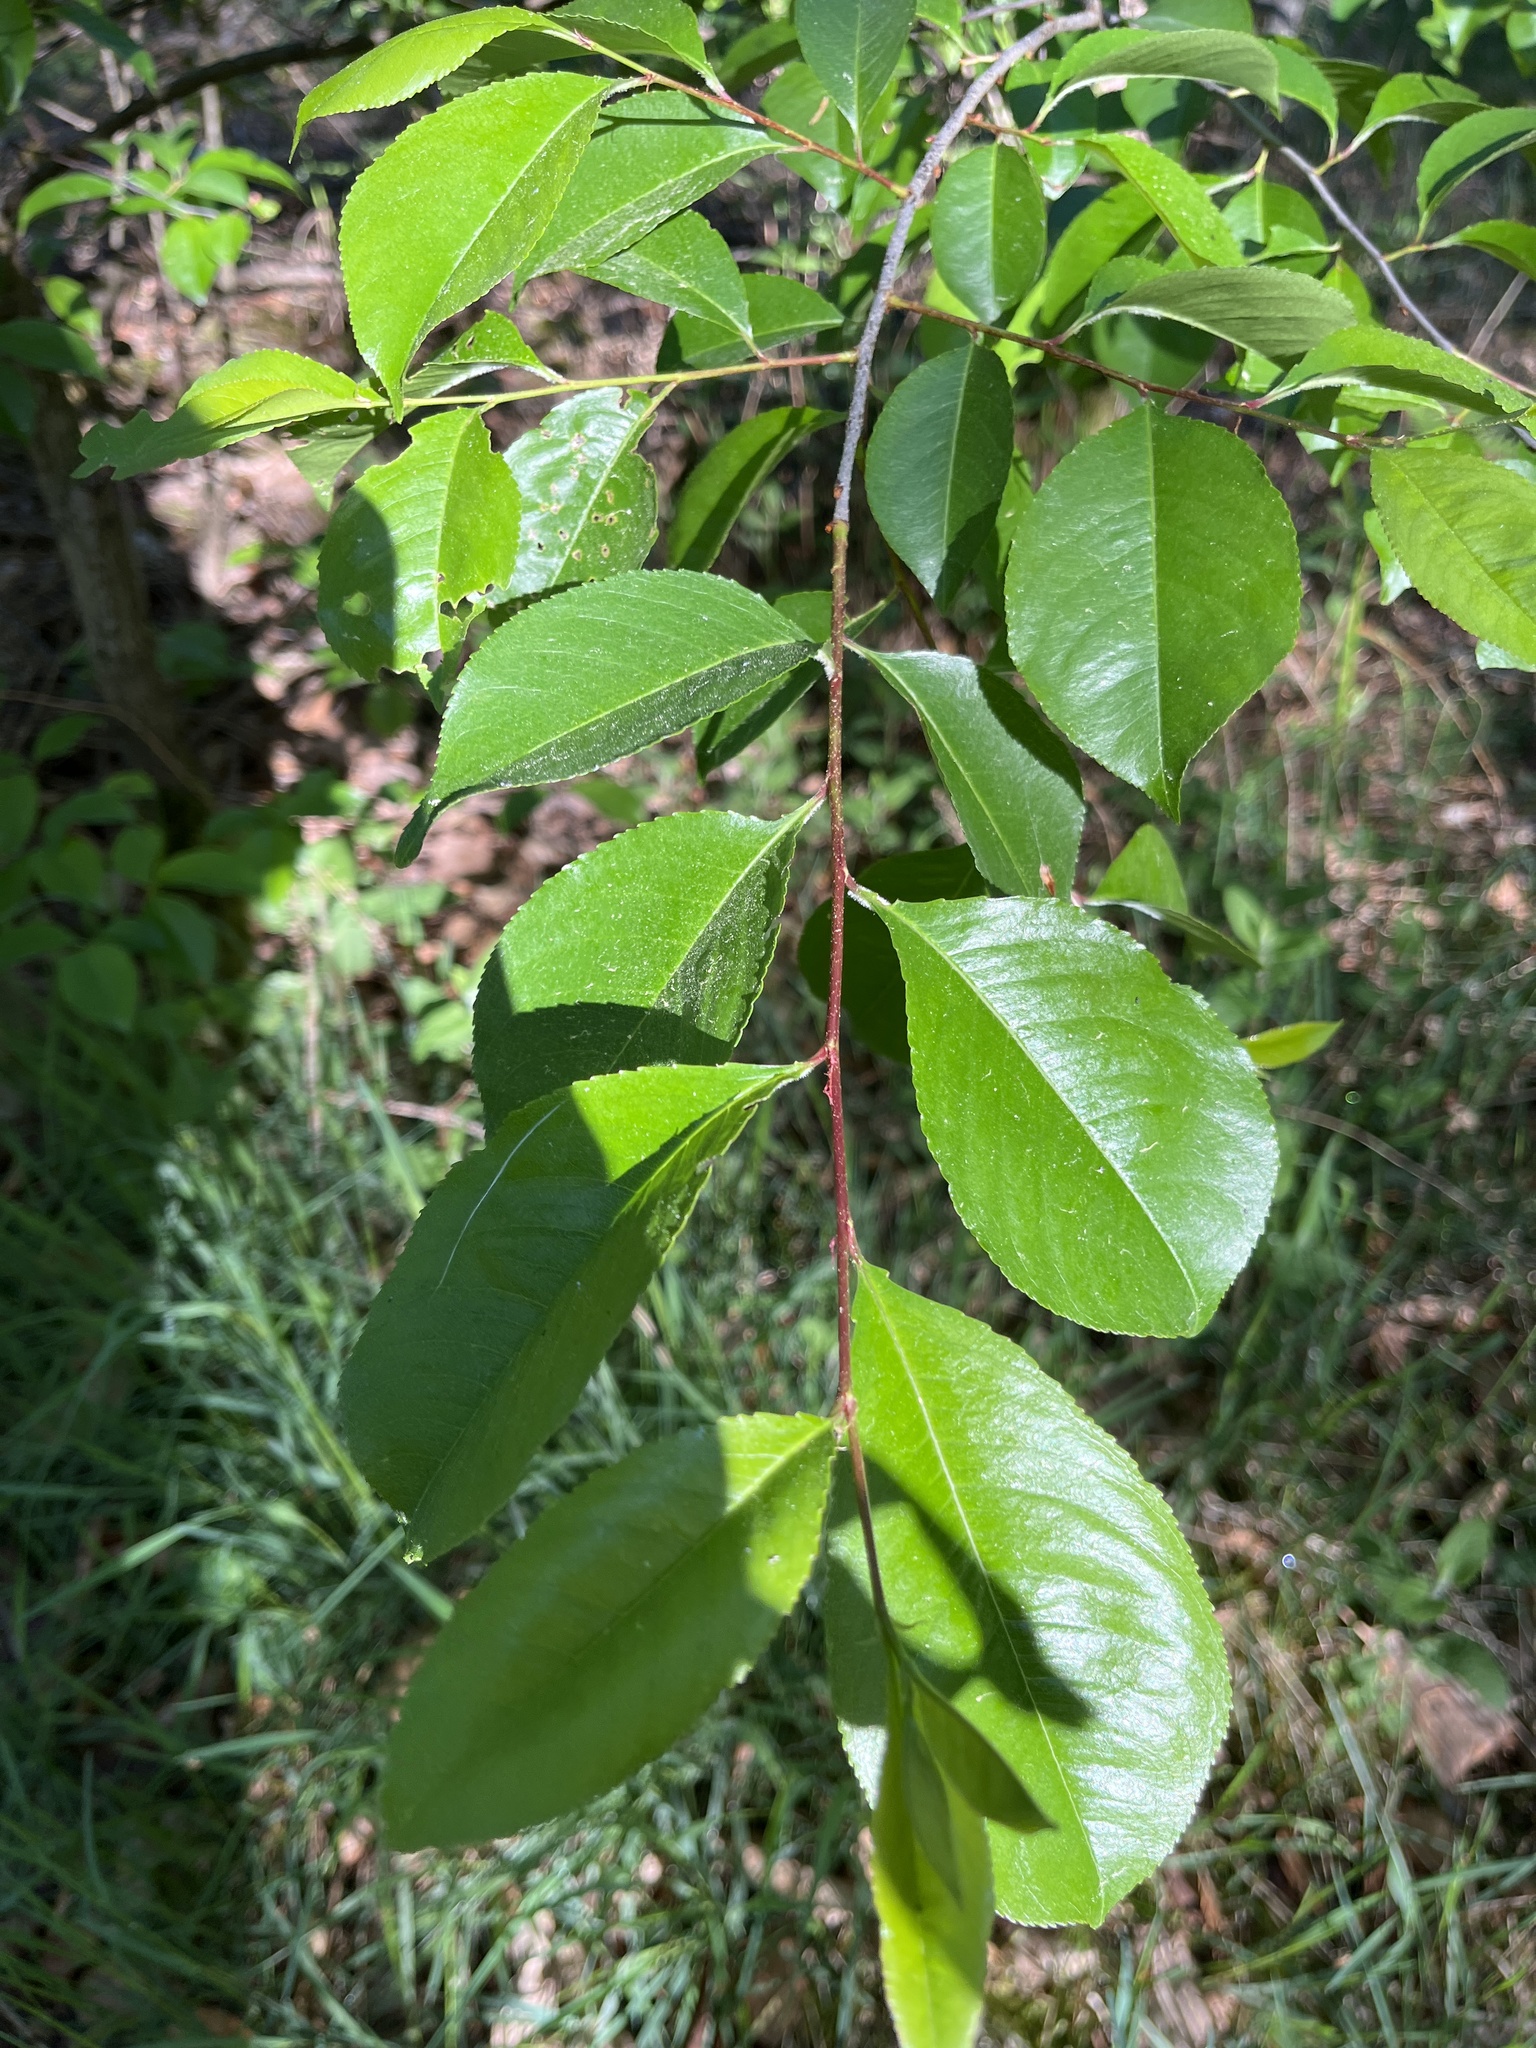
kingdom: Plantae
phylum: Tracheophyta
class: Magnoliopsida
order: Rosales
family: Rosaceae
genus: Prunus
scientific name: Prunus serotina
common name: Black cherry
